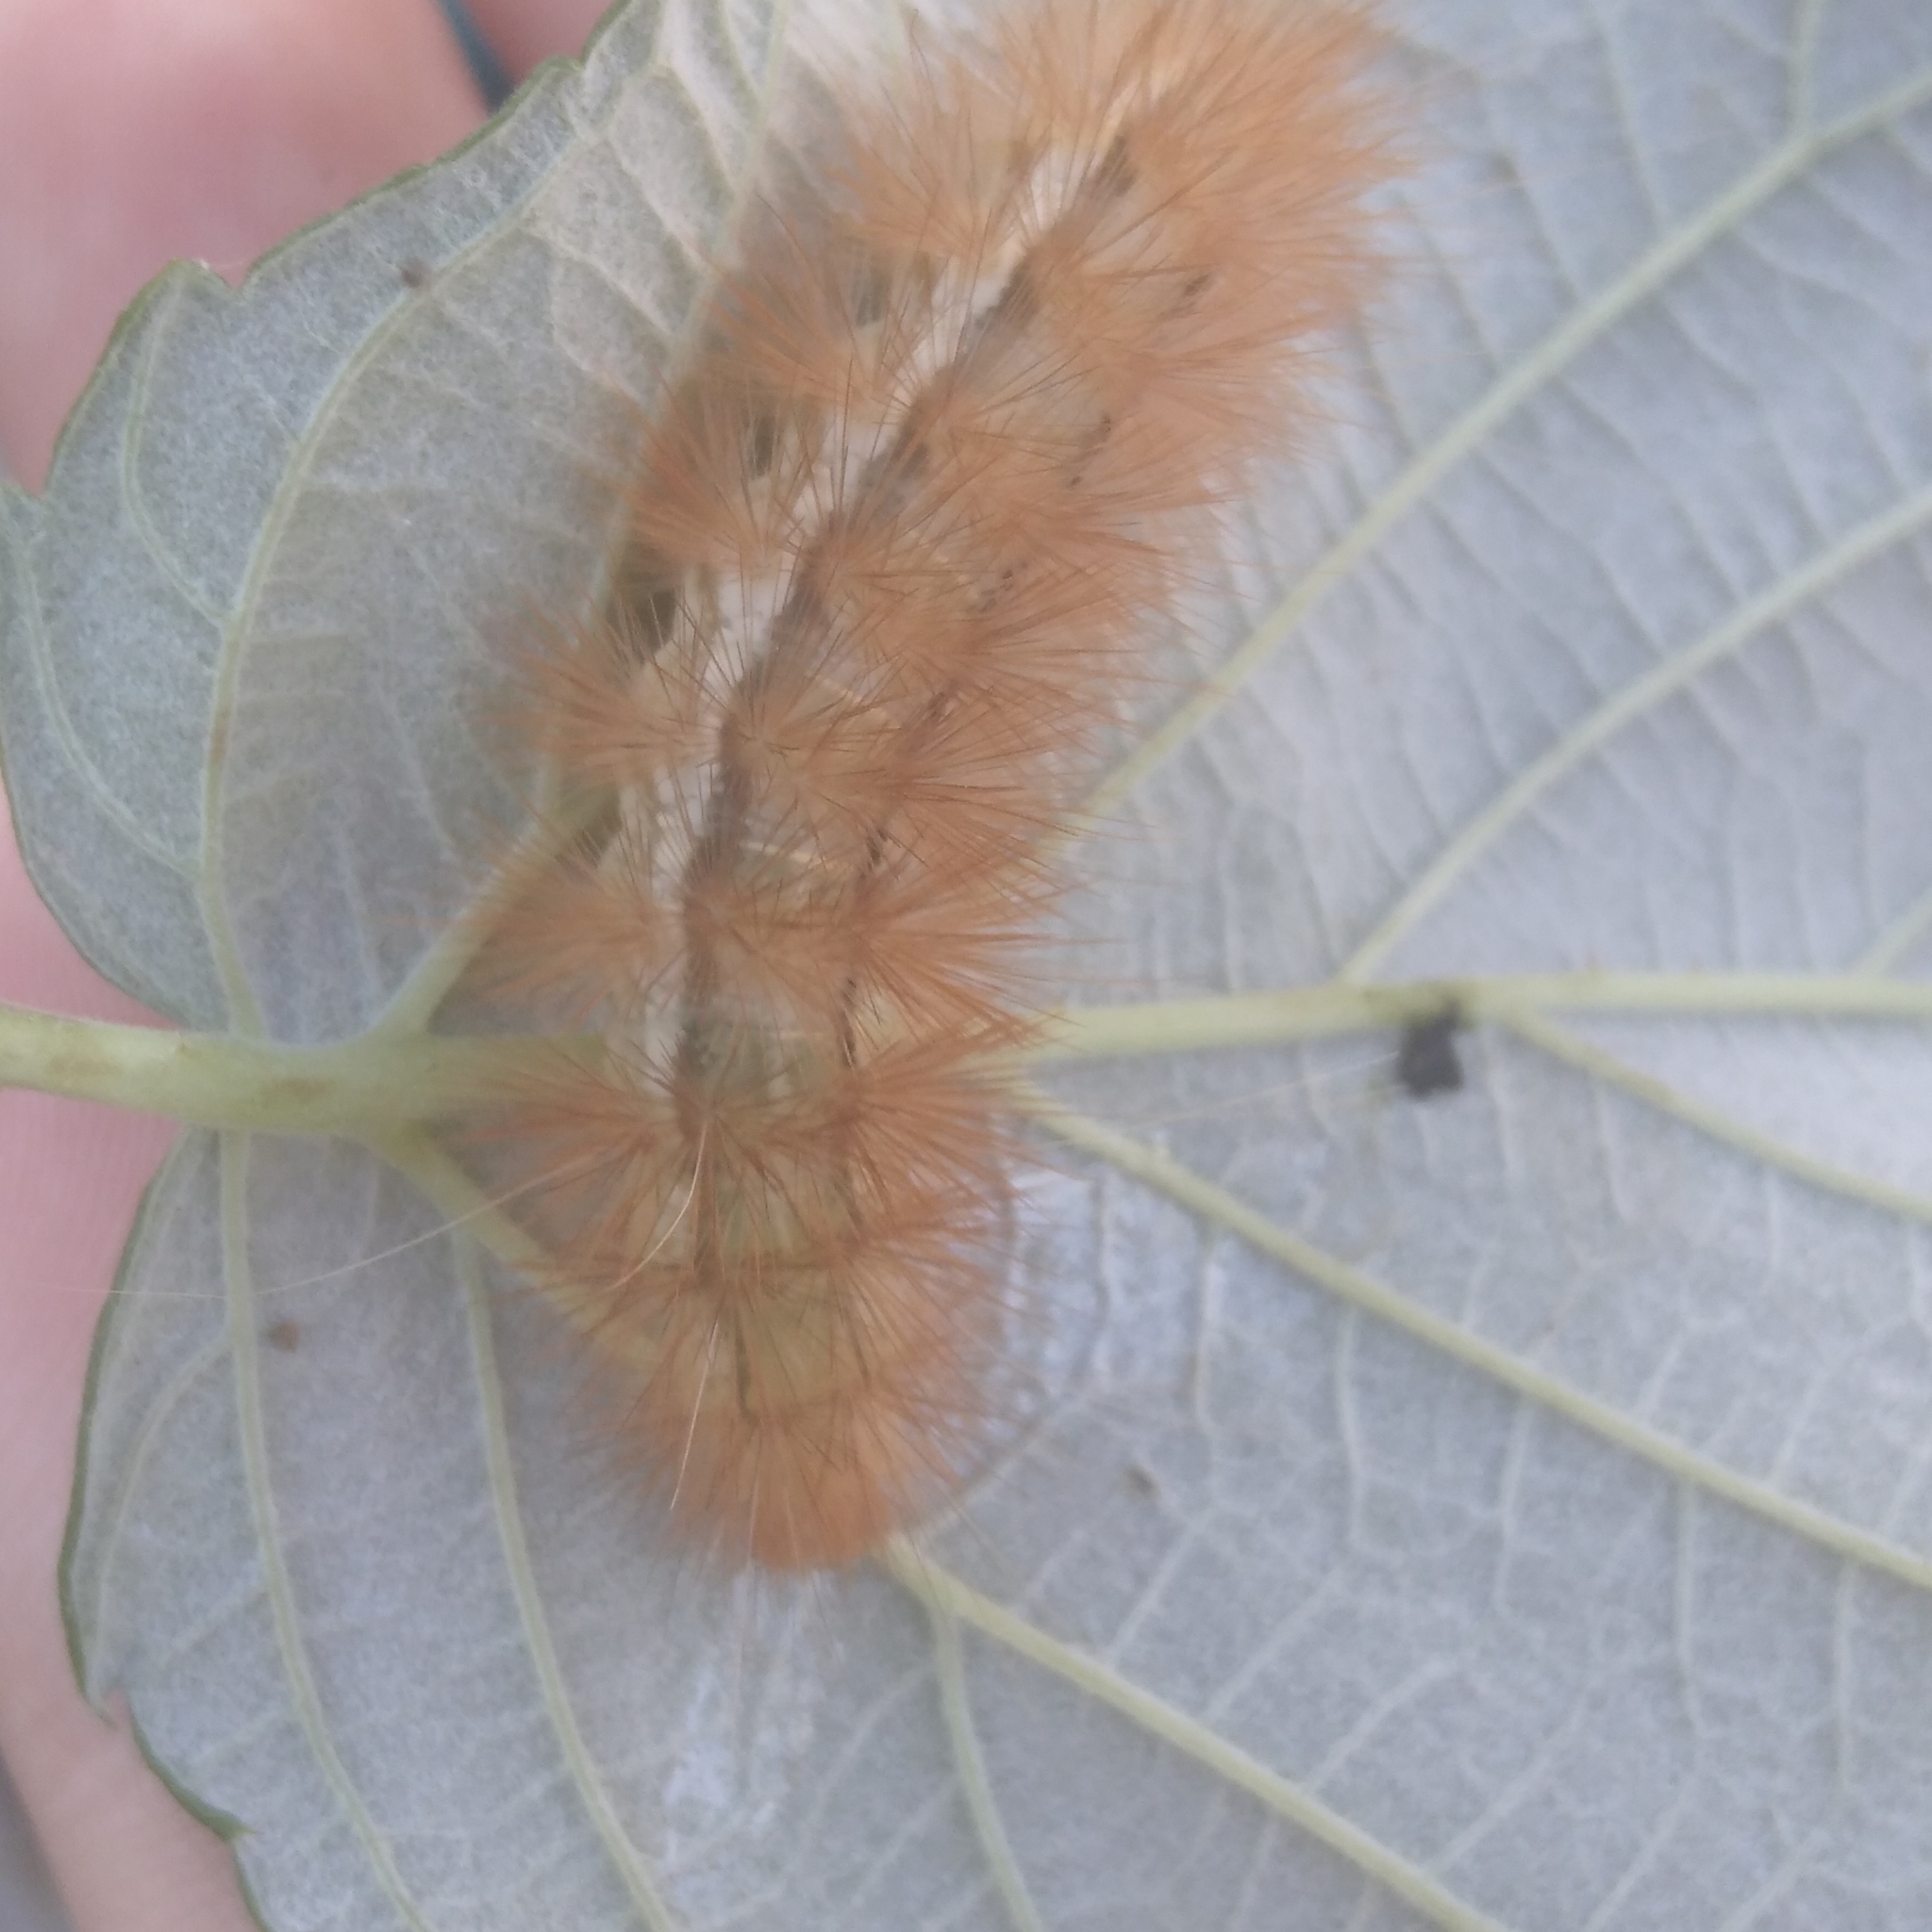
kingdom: Animalia
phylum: Arthropoda
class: Insecta
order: Lepidoptera
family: Erebidae
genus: Spilarctia
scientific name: Spilarctia lutea
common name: Buff ermine
